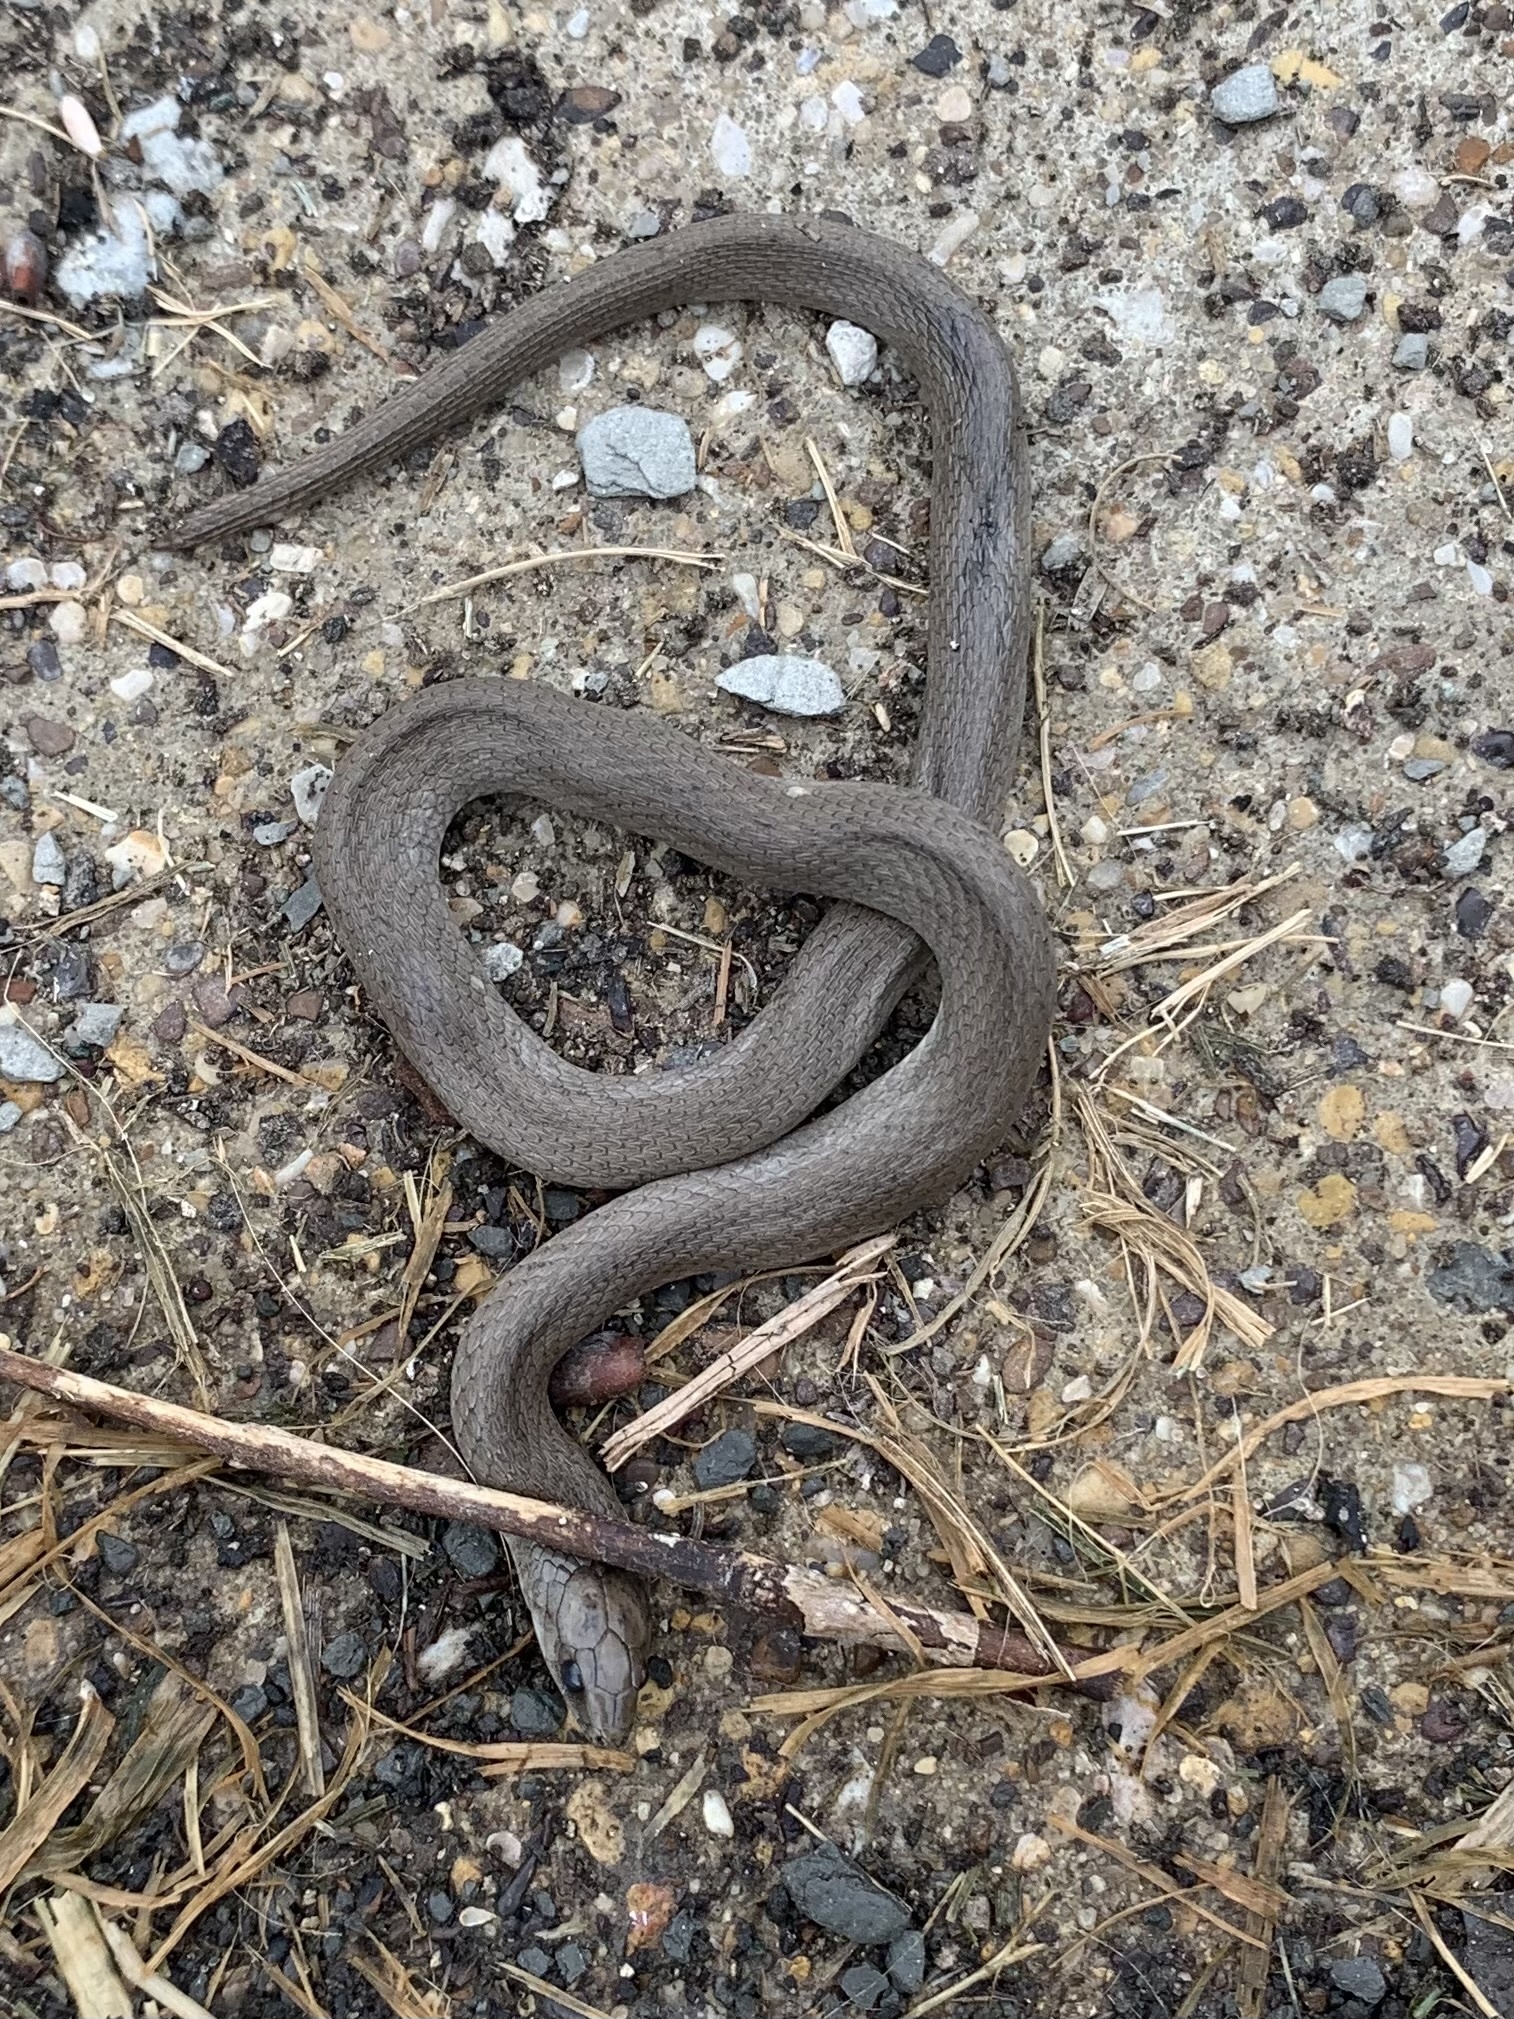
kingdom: Animalia
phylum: Chordata
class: Squamata
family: Colubridae
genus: Haldea
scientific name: Haldea striatula
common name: Rough earth snake
